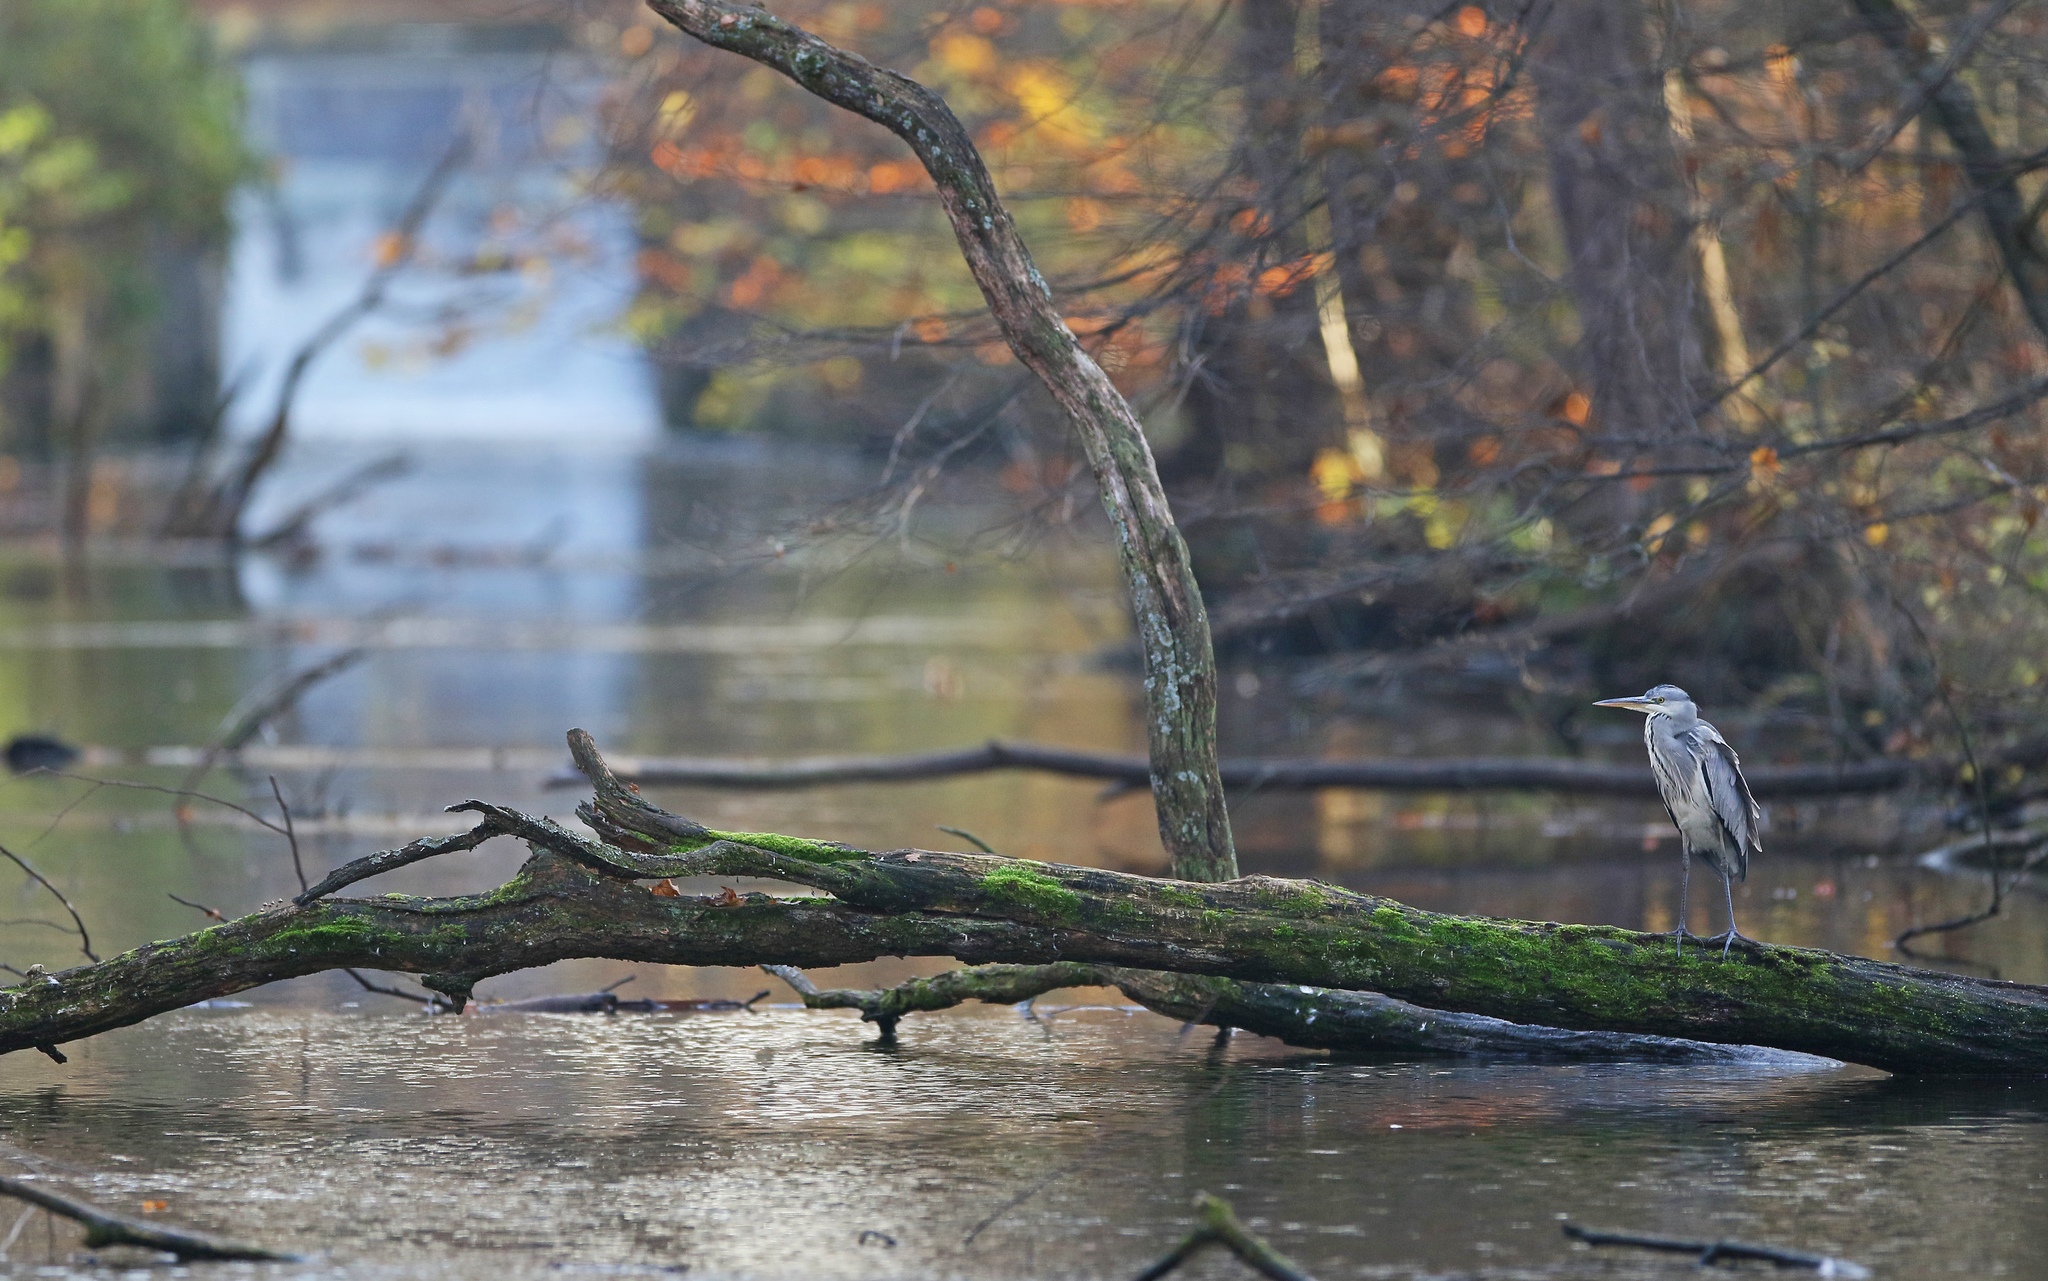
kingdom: Animalia
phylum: Chordata
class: Aves
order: Pelecaniformes
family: Ardeidae
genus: Ardea
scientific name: Ardea cinerea
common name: Grey heron
